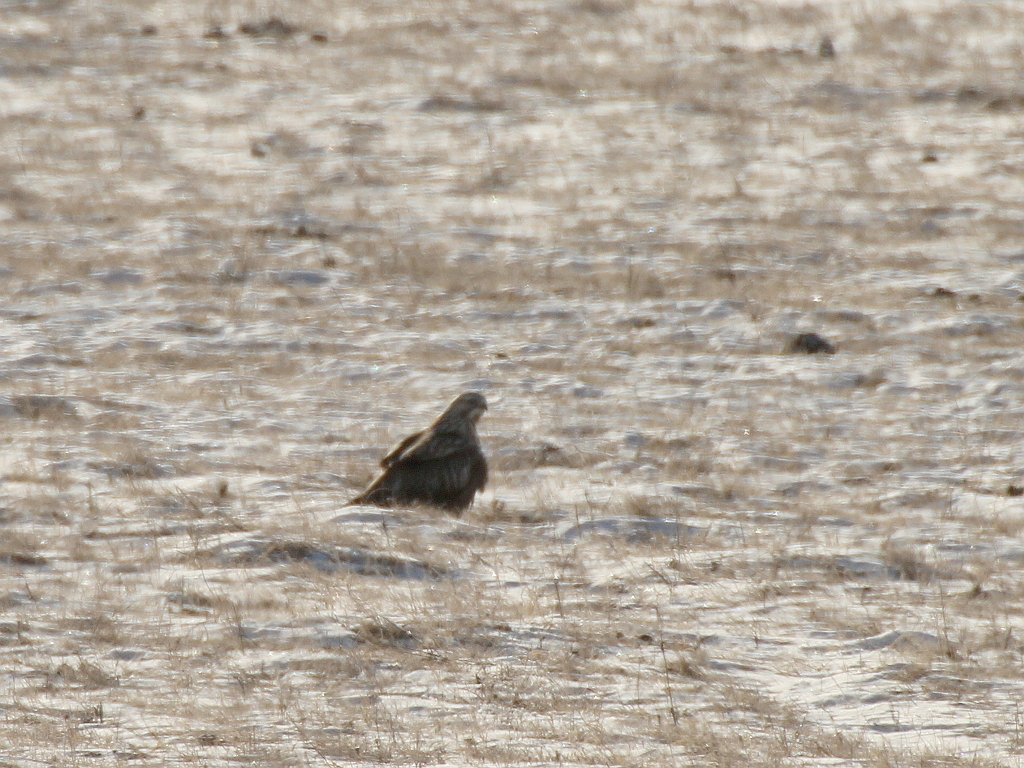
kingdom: Animalia
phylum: Chordata
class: Aves
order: Accipitriformes
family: Accipitridae
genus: Buteo
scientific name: Buteo hemilasius
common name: Upland buzzard
